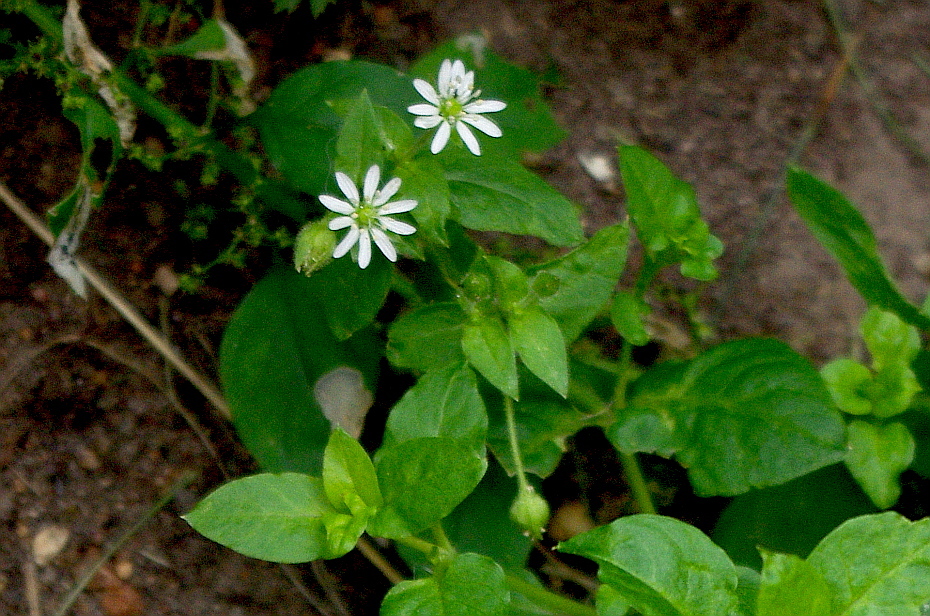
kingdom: Plantae
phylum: Tracheophyta
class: Magnoliopsida
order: Caryophyllales
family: Caryophyllaceae
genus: Stellaria
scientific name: Stellaria aquatica
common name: Water chickweed
